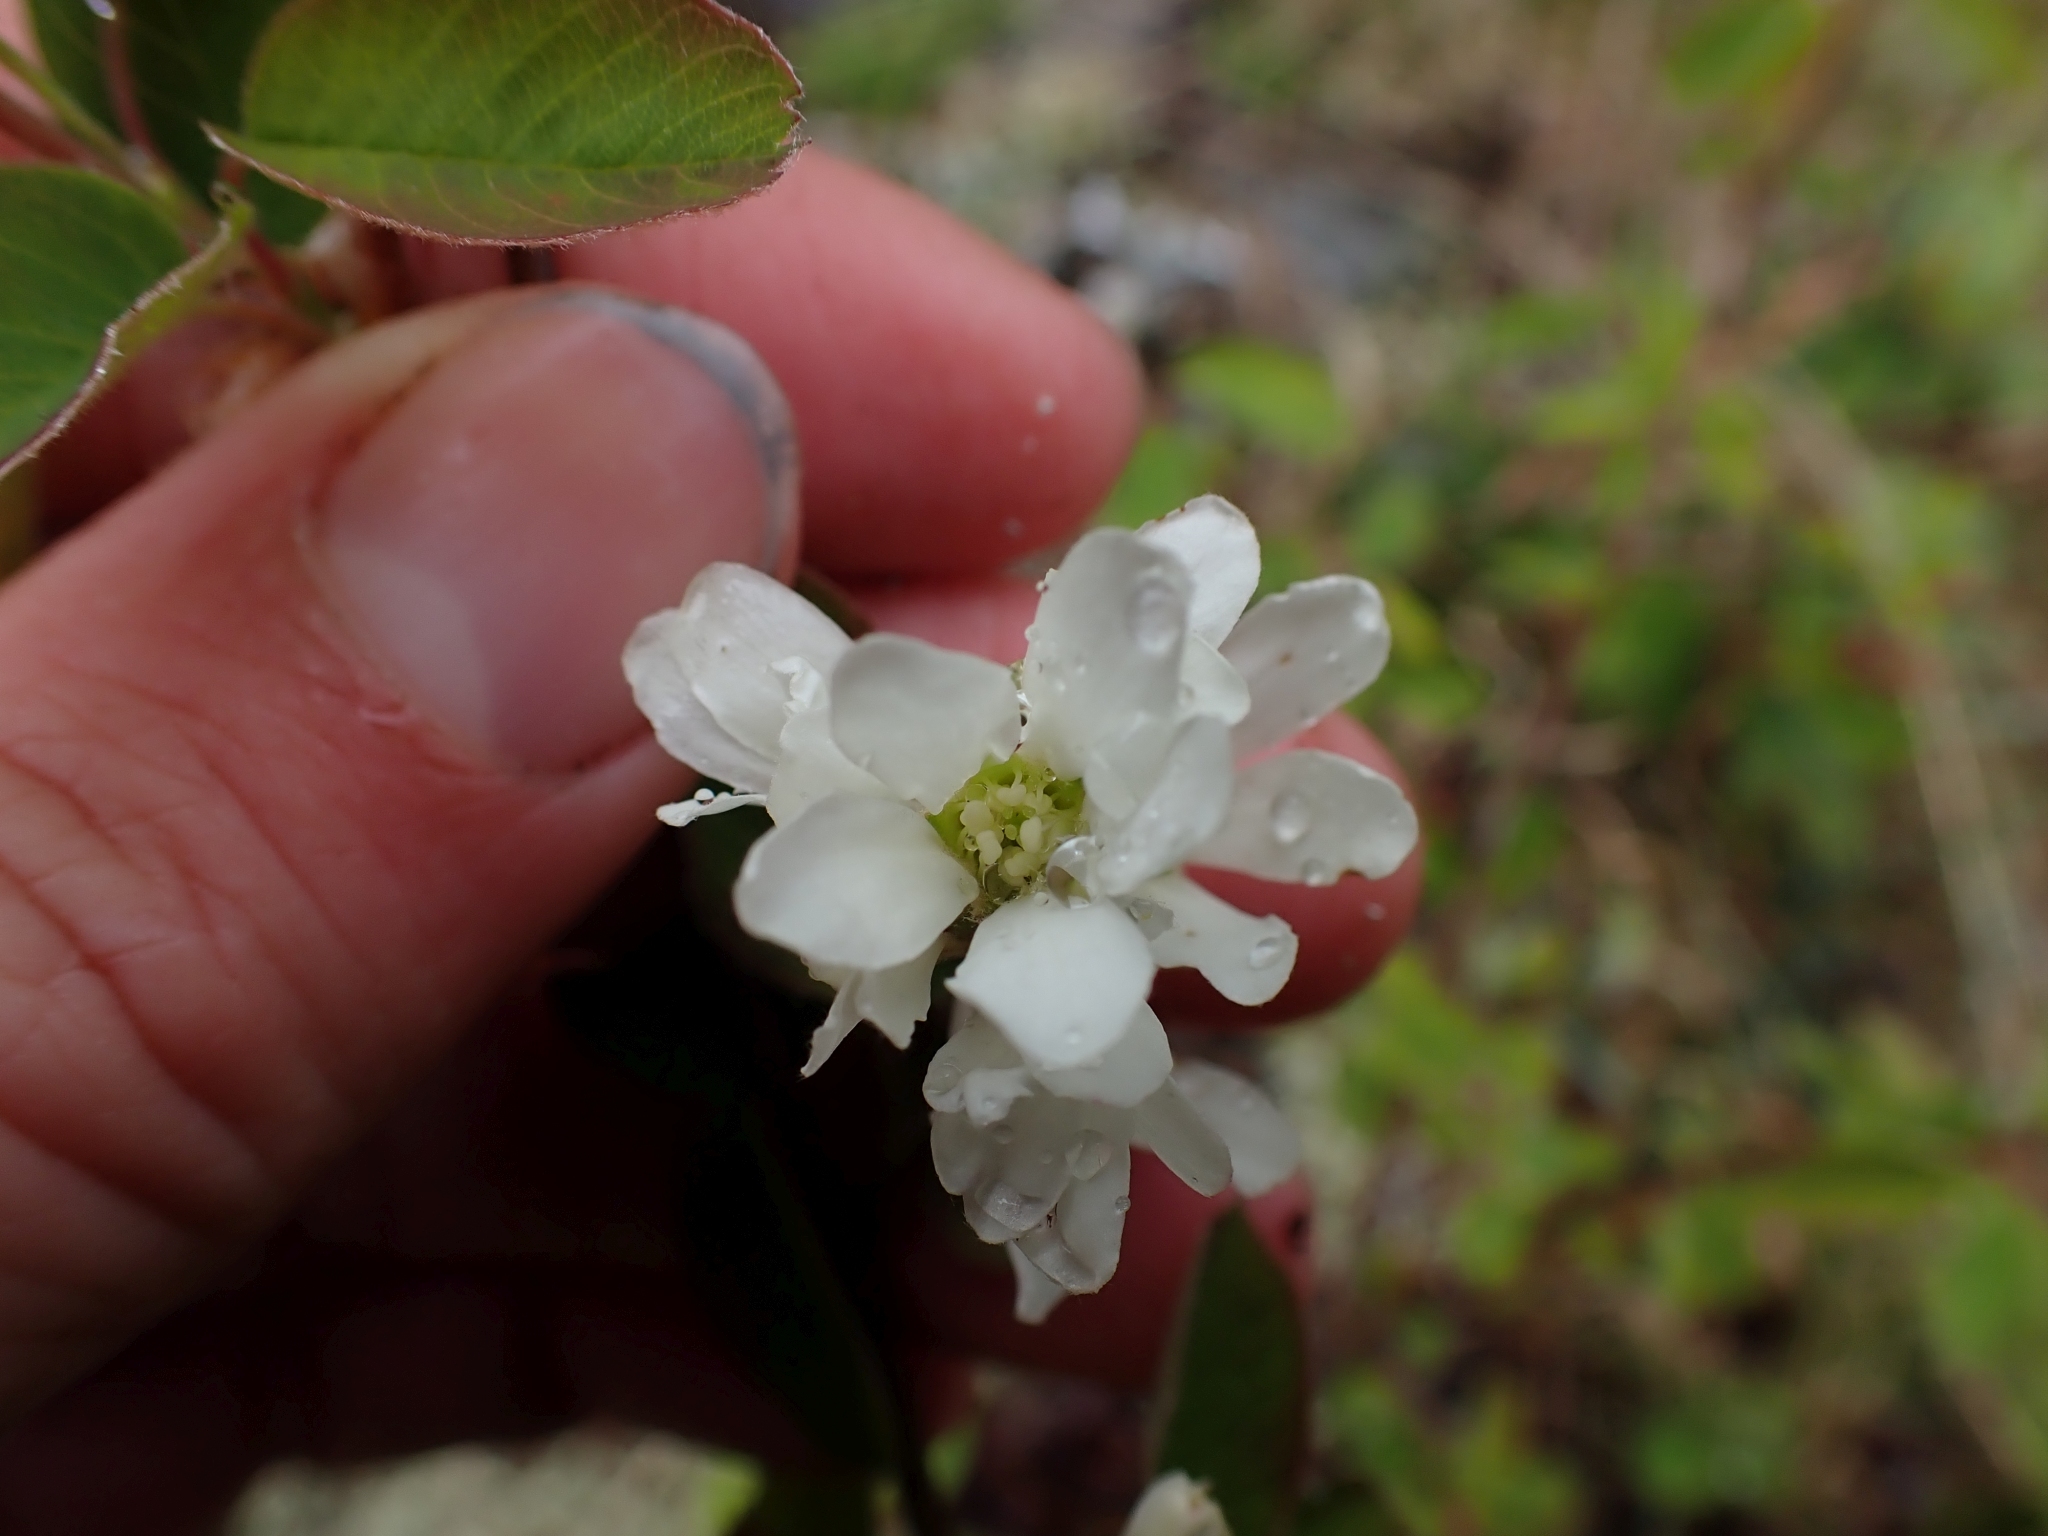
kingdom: Plantae
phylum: Tracheophyta
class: Magnoliopsida
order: Rosales
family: Rosaceae
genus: Amelanchier
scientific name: Amelanchier alnifolia
